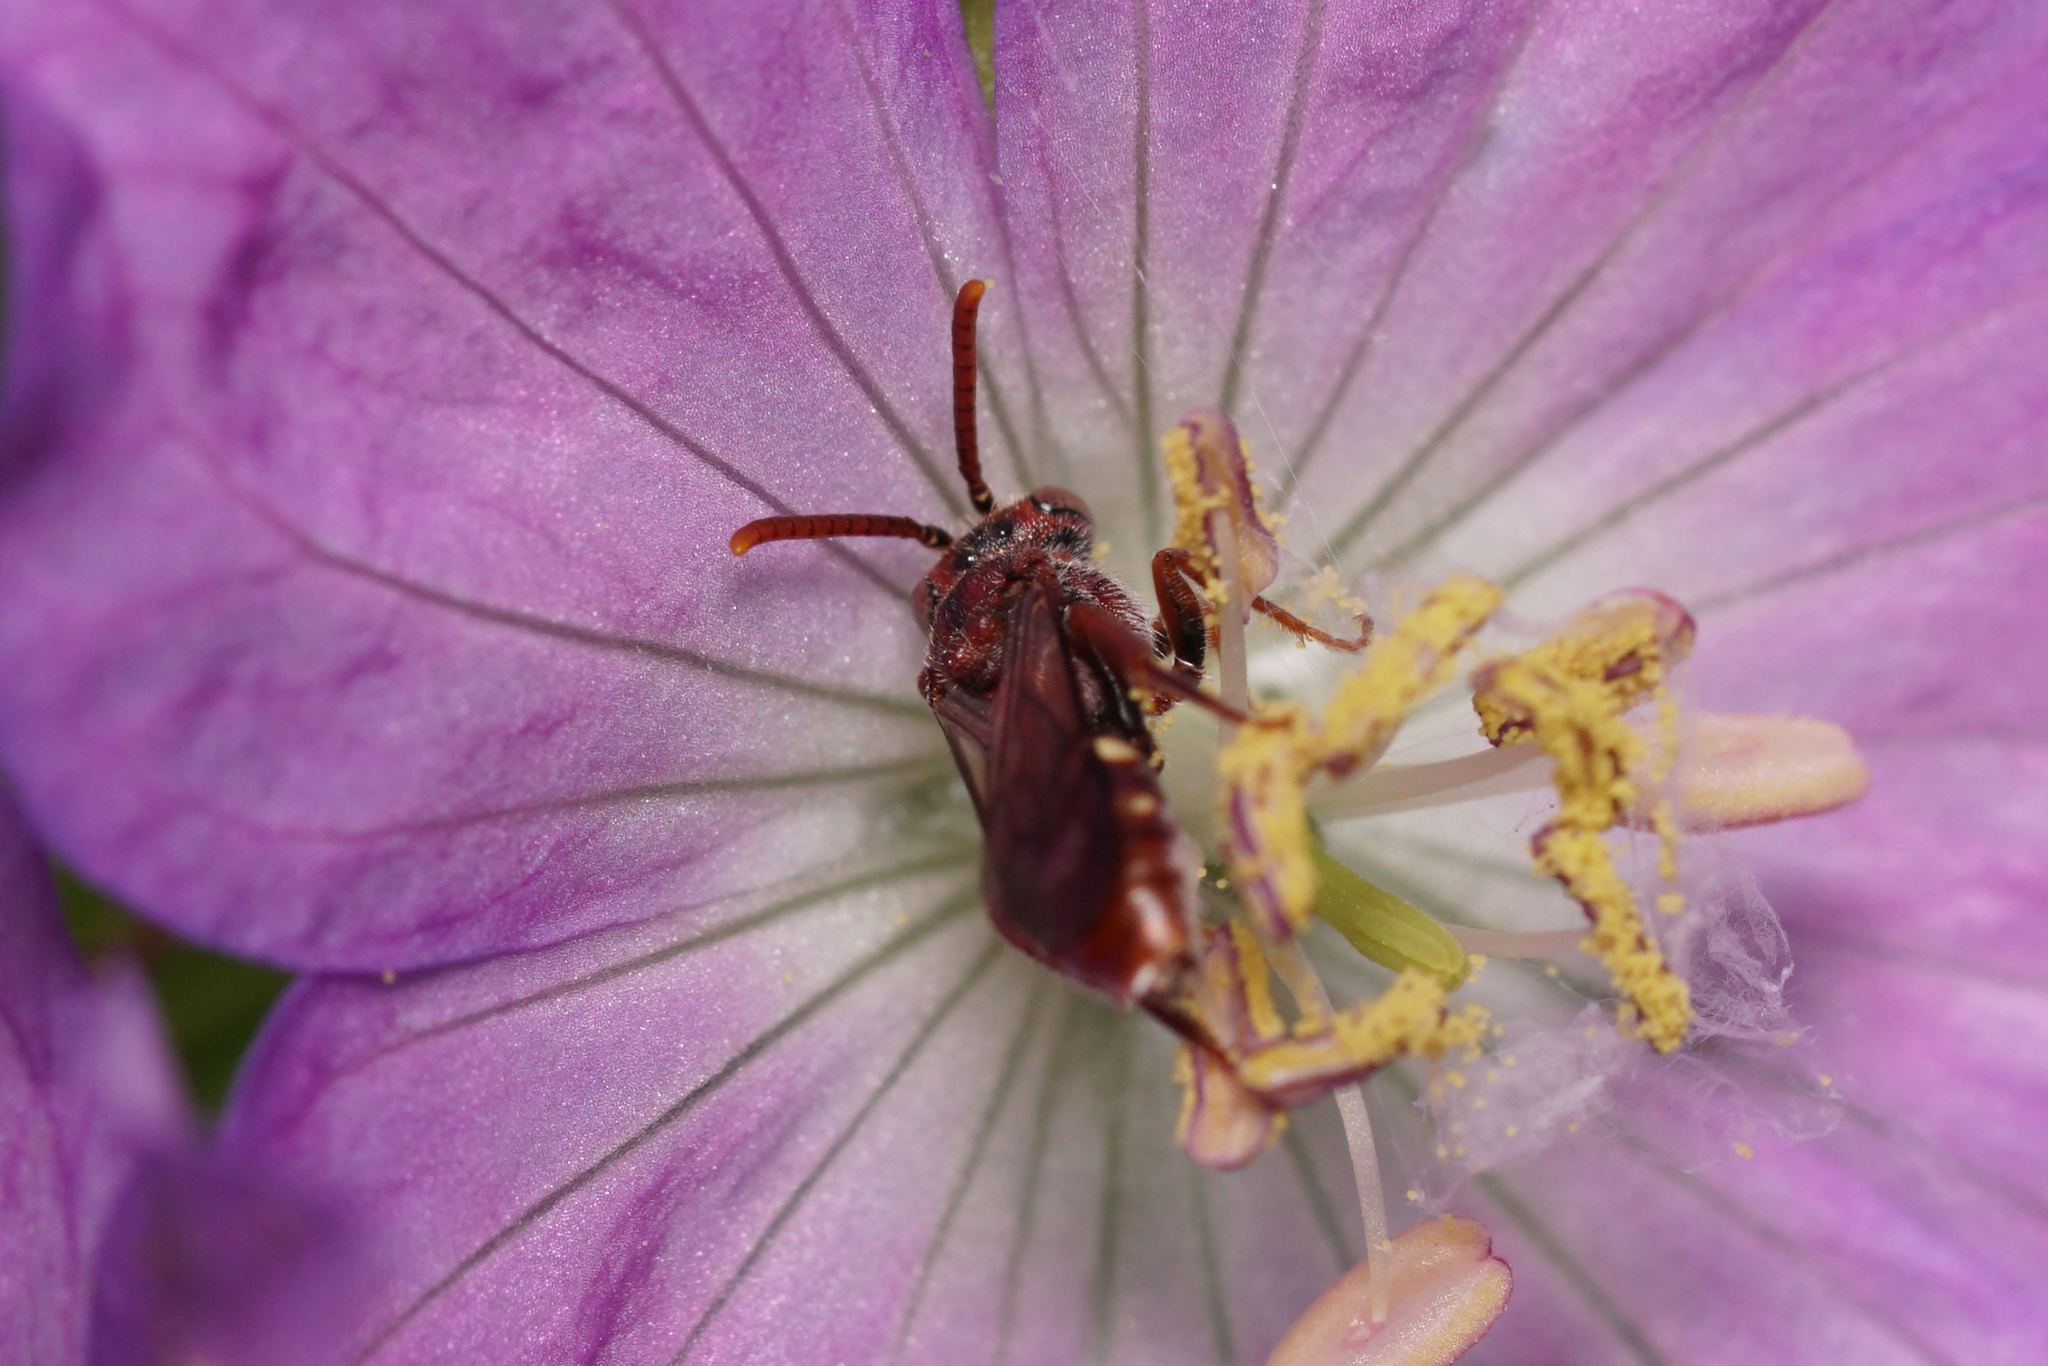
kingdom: Animalia
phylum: Arthropoda
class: Insecta
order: Hymenoptera
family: Apidae
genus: Nomada
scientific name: Nomada
